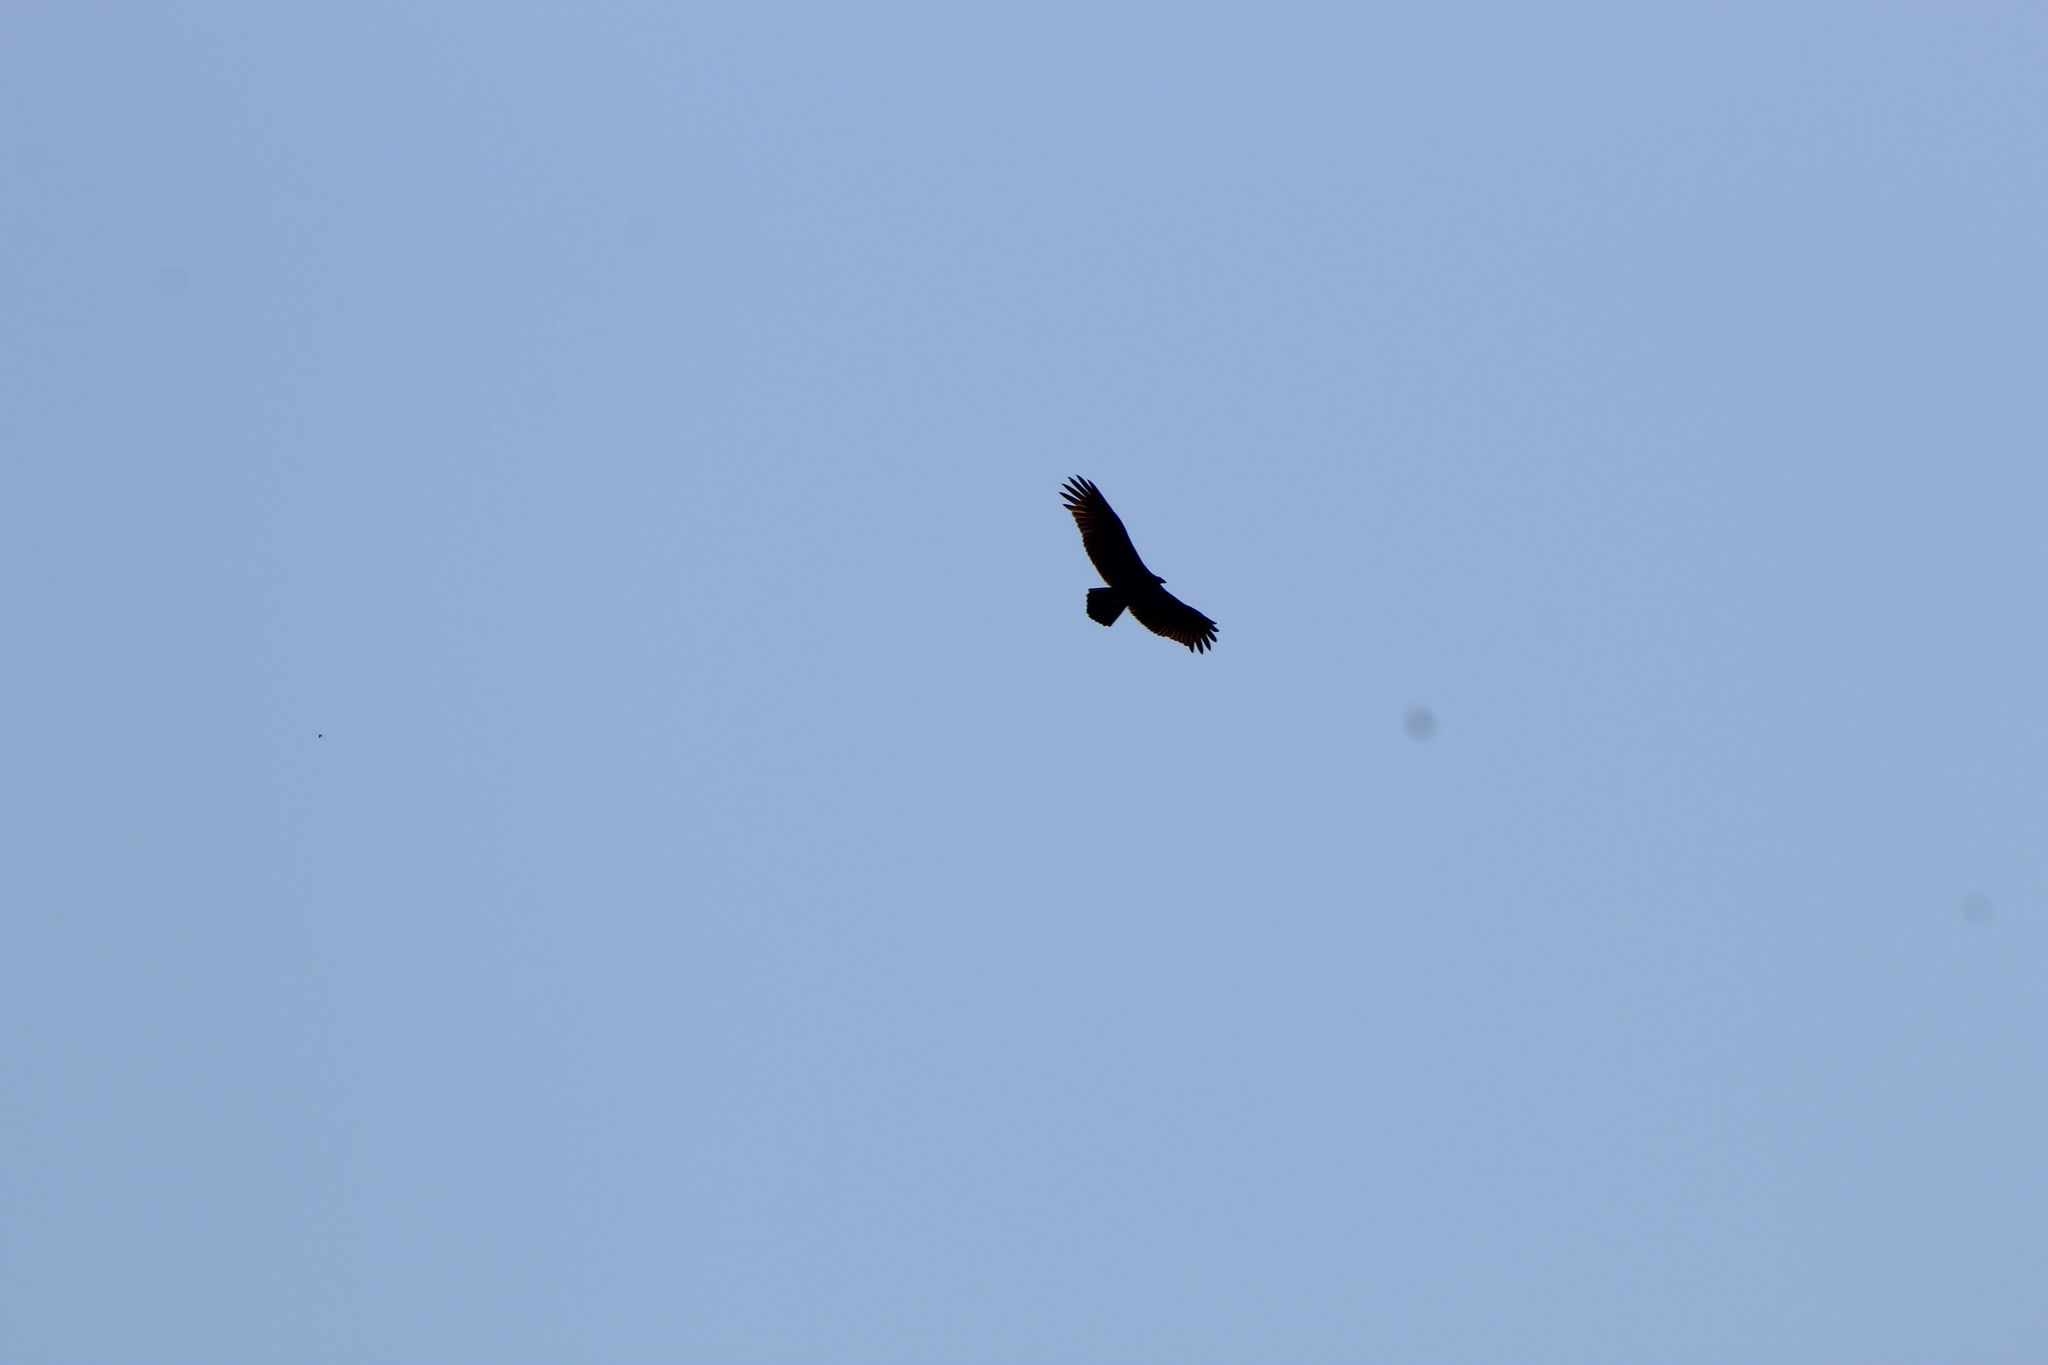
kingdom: Animalia
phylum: Chordata
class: Aves
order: Accipitriformes
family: Cathartidae
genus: Cathartes
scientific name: Cathartes aura
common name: Turkey vulture
